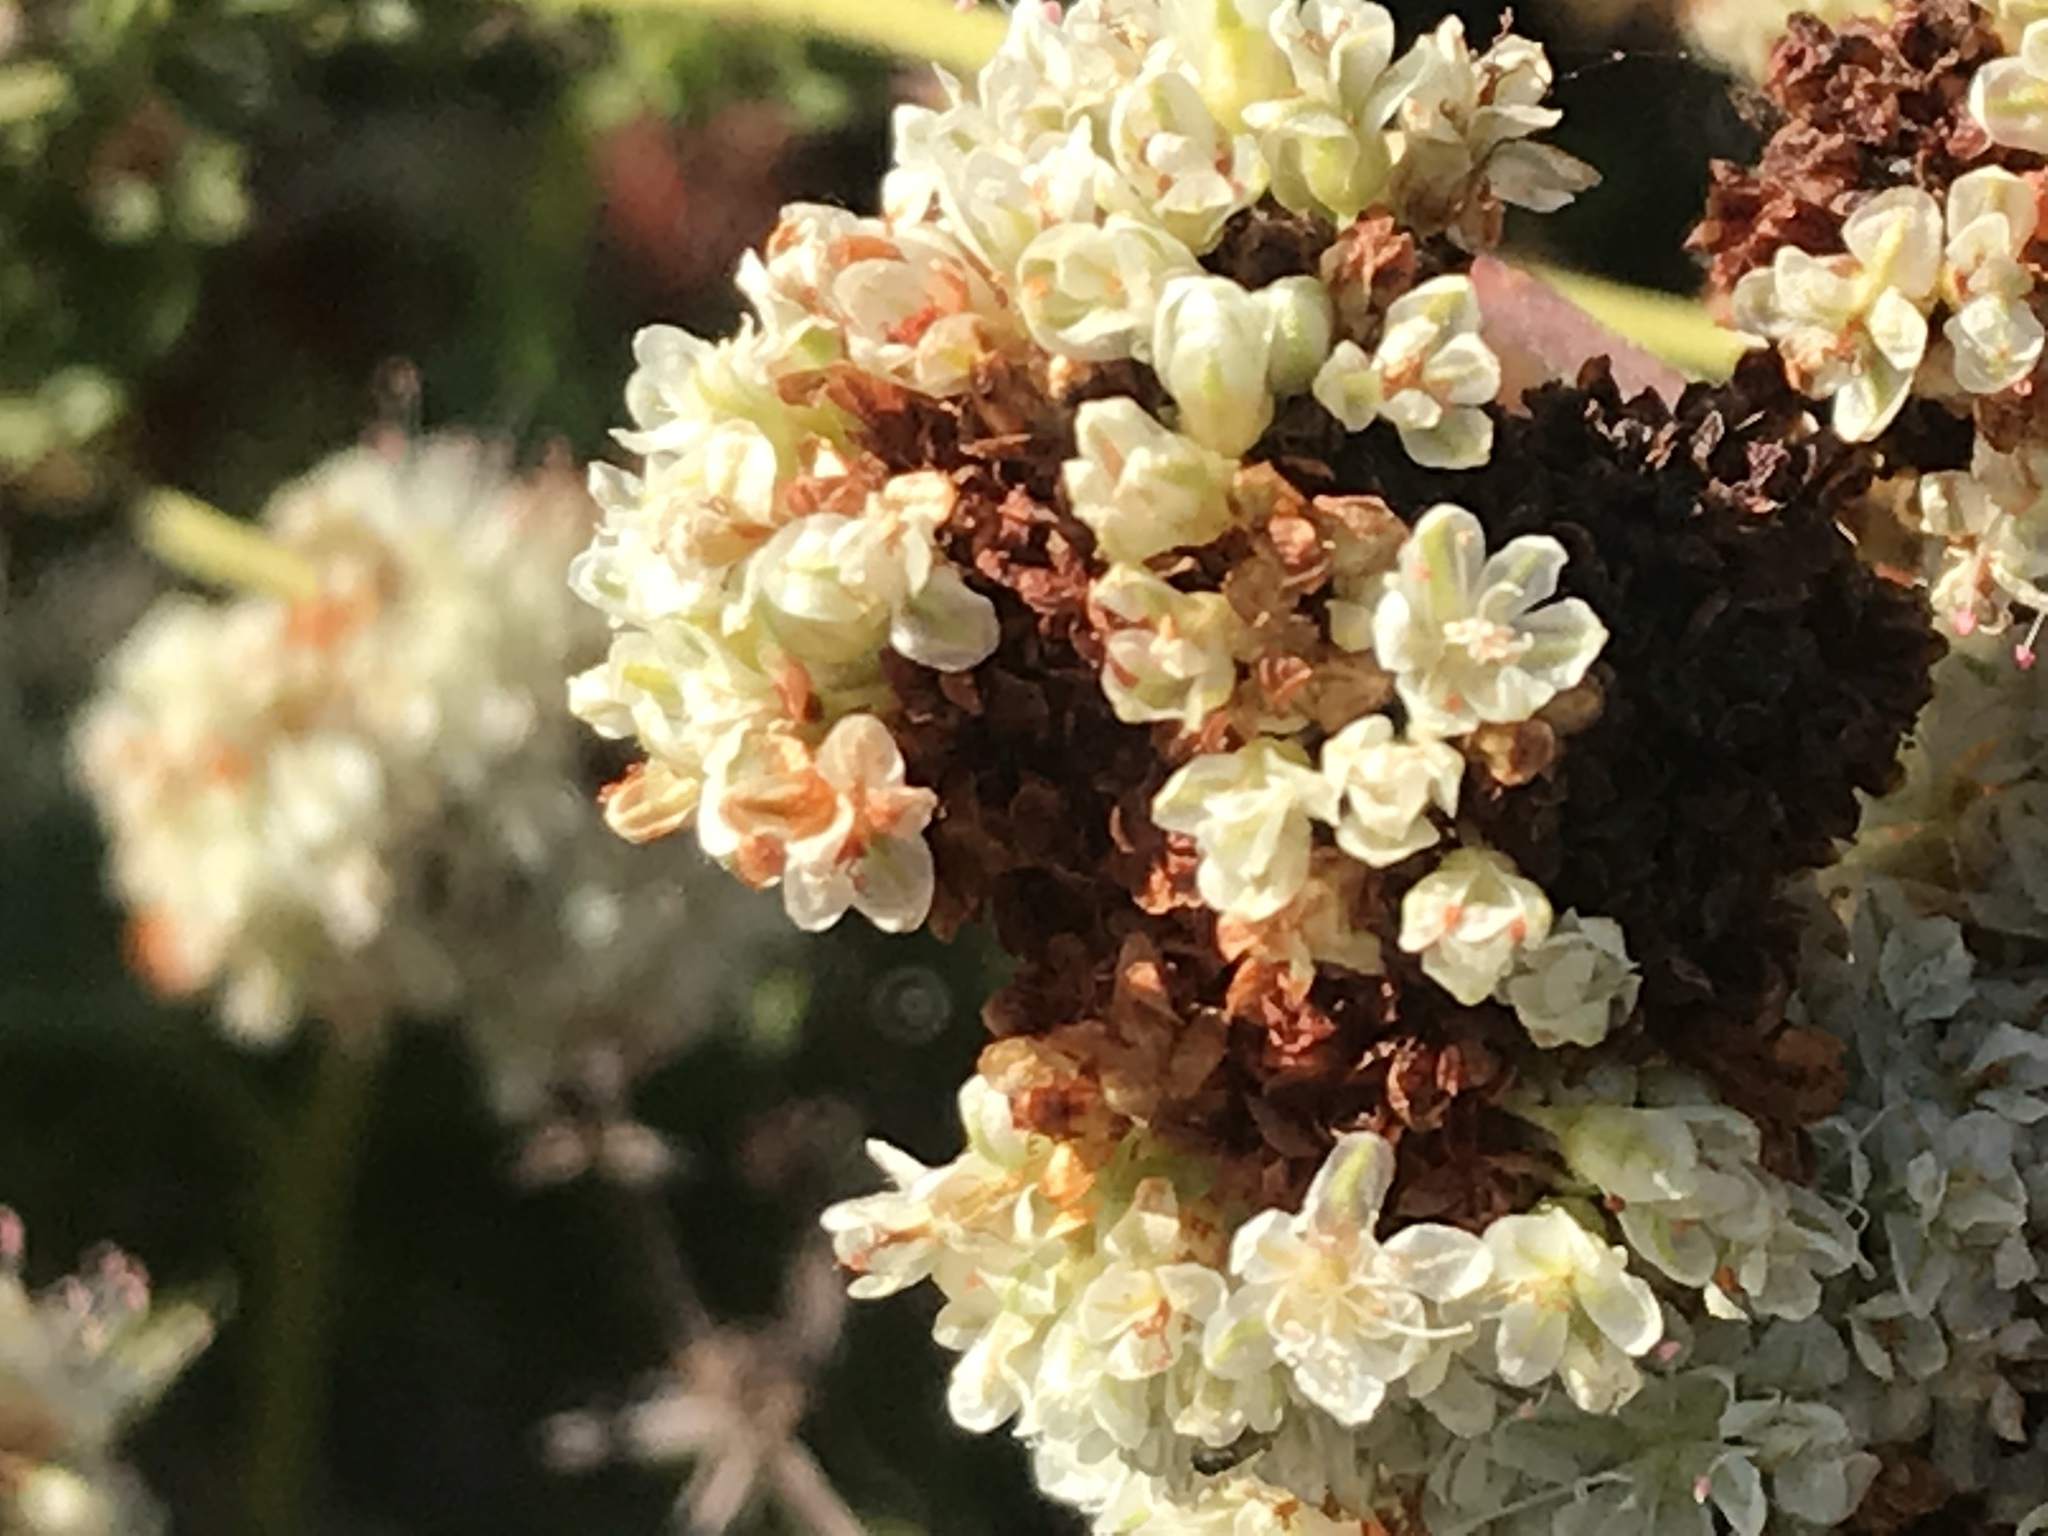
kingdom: Plantae
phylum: Tracheophyta
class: Magnoliopsida
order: Caryophyllales
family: Polygonaceae
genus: Eriogonum
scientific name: Eriogonum fasciculatum
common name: California wild buckwheat
